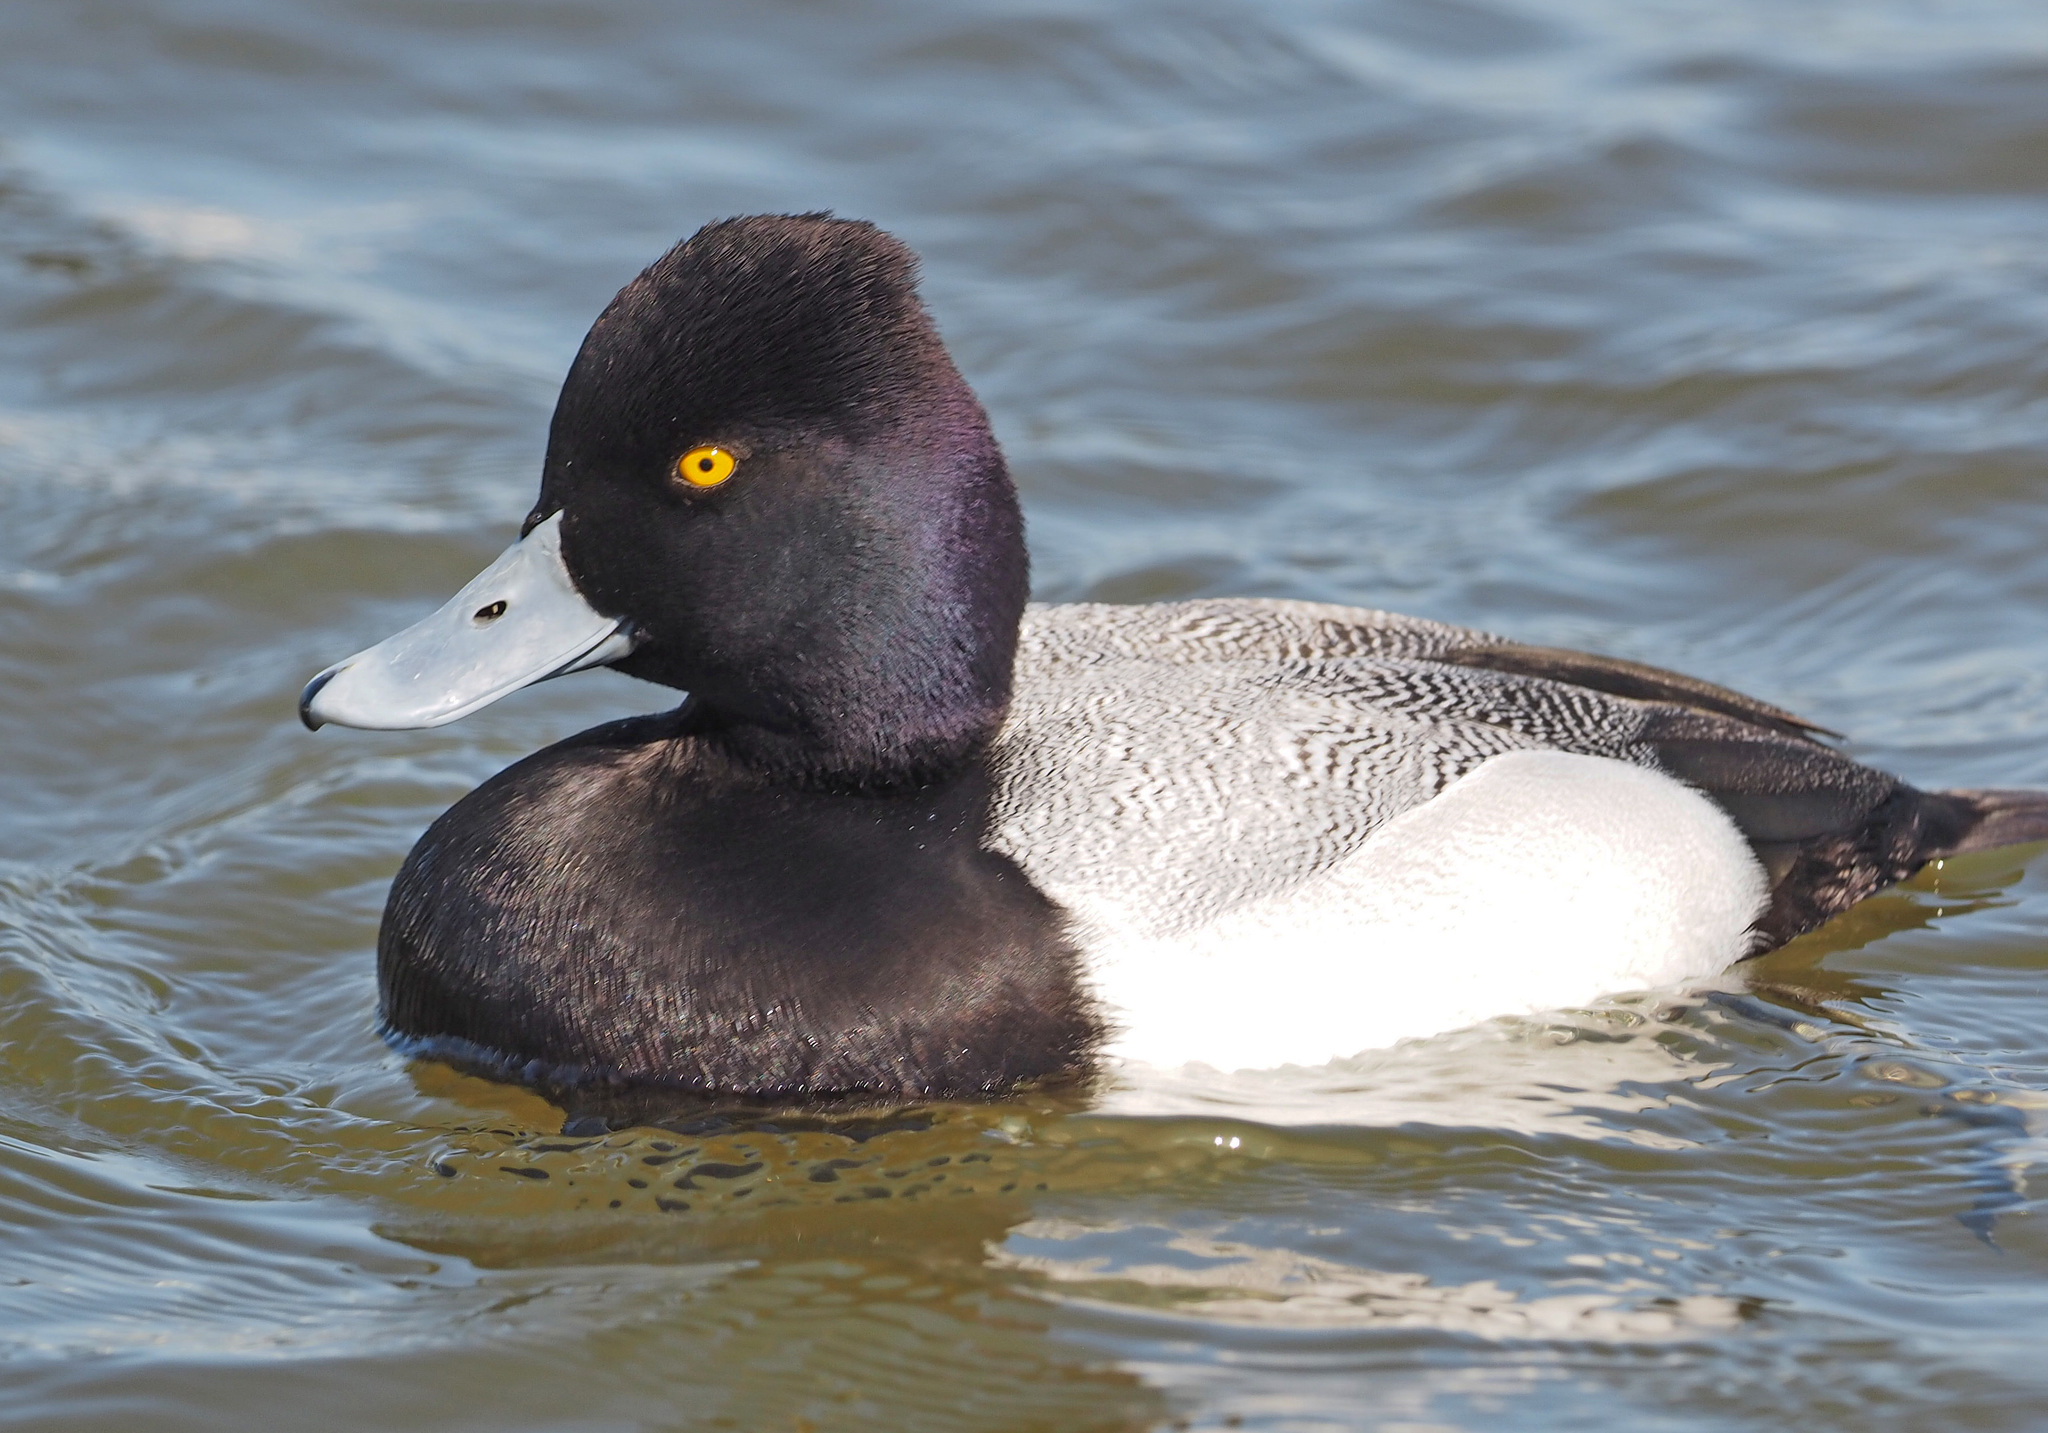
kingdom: Animalia
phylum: Chordata
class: Aves
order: Anseriformes
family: Anatidae
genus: Aythya
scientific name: Aythya affinis
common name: Lesser scaup
